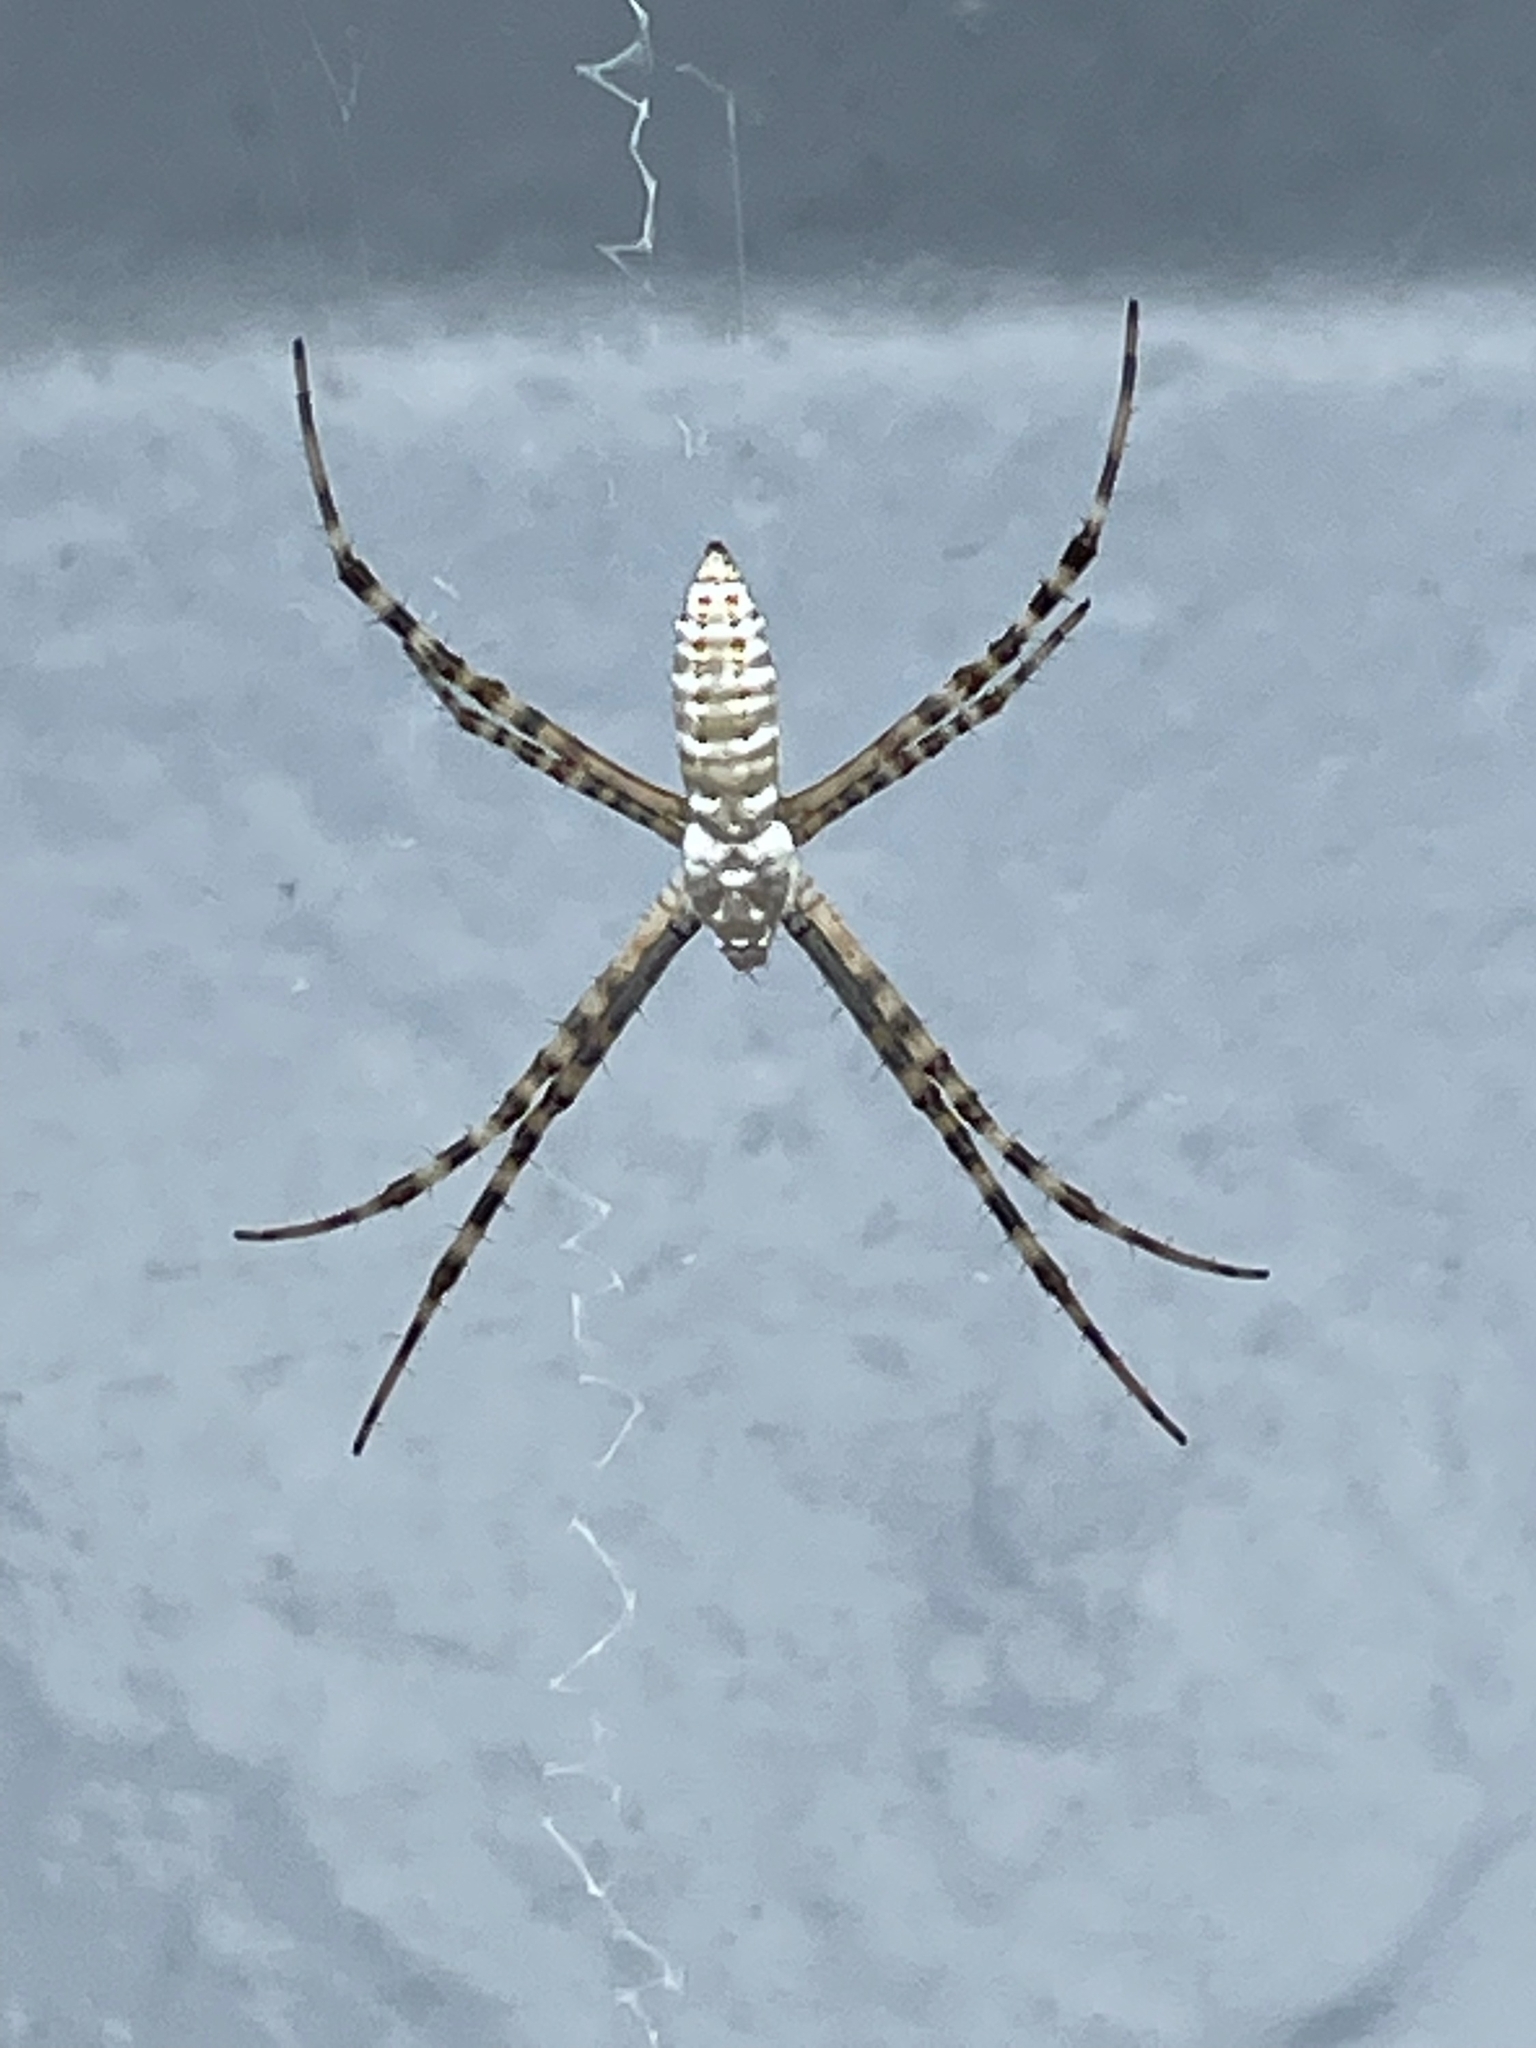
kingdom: Animalia
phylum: Arthropoda
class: Arachnida
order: Araneae
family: Araneidae
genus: Argiope
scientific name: Argiope trifasciata
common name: Banded garden spider
